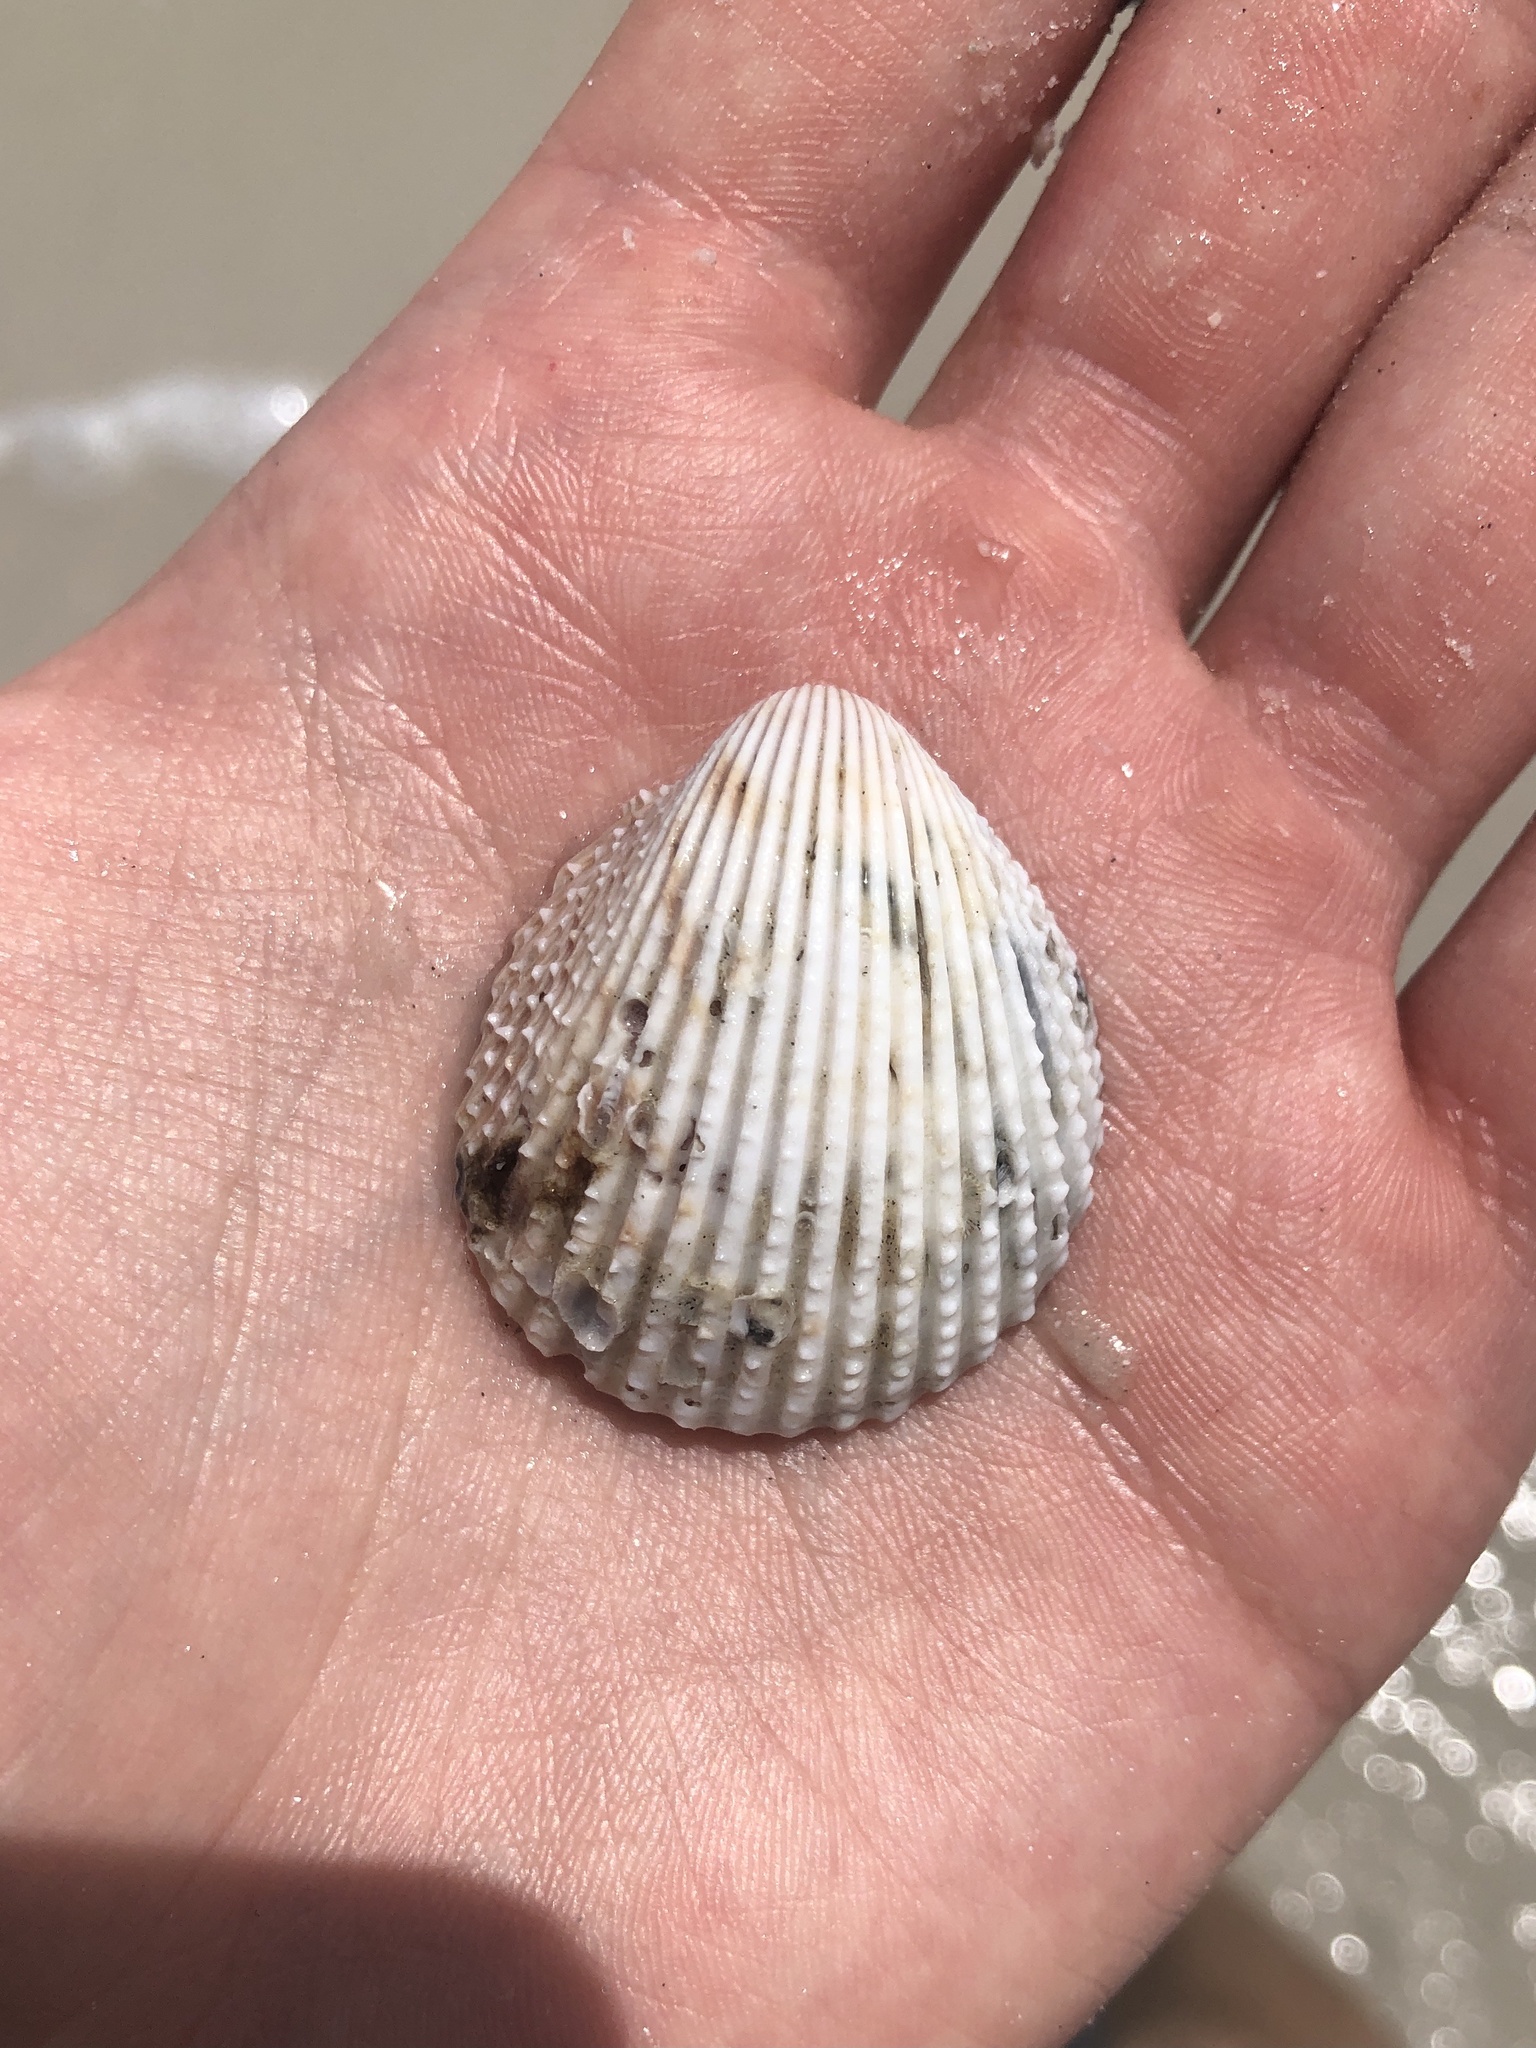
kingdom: Animalia
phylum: Mollusca
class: Bivalvia
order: Cardiida
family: Cardiidae
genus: Trachycardium
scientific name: Trachycardium egmontianum
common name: Florida pricklycockle
